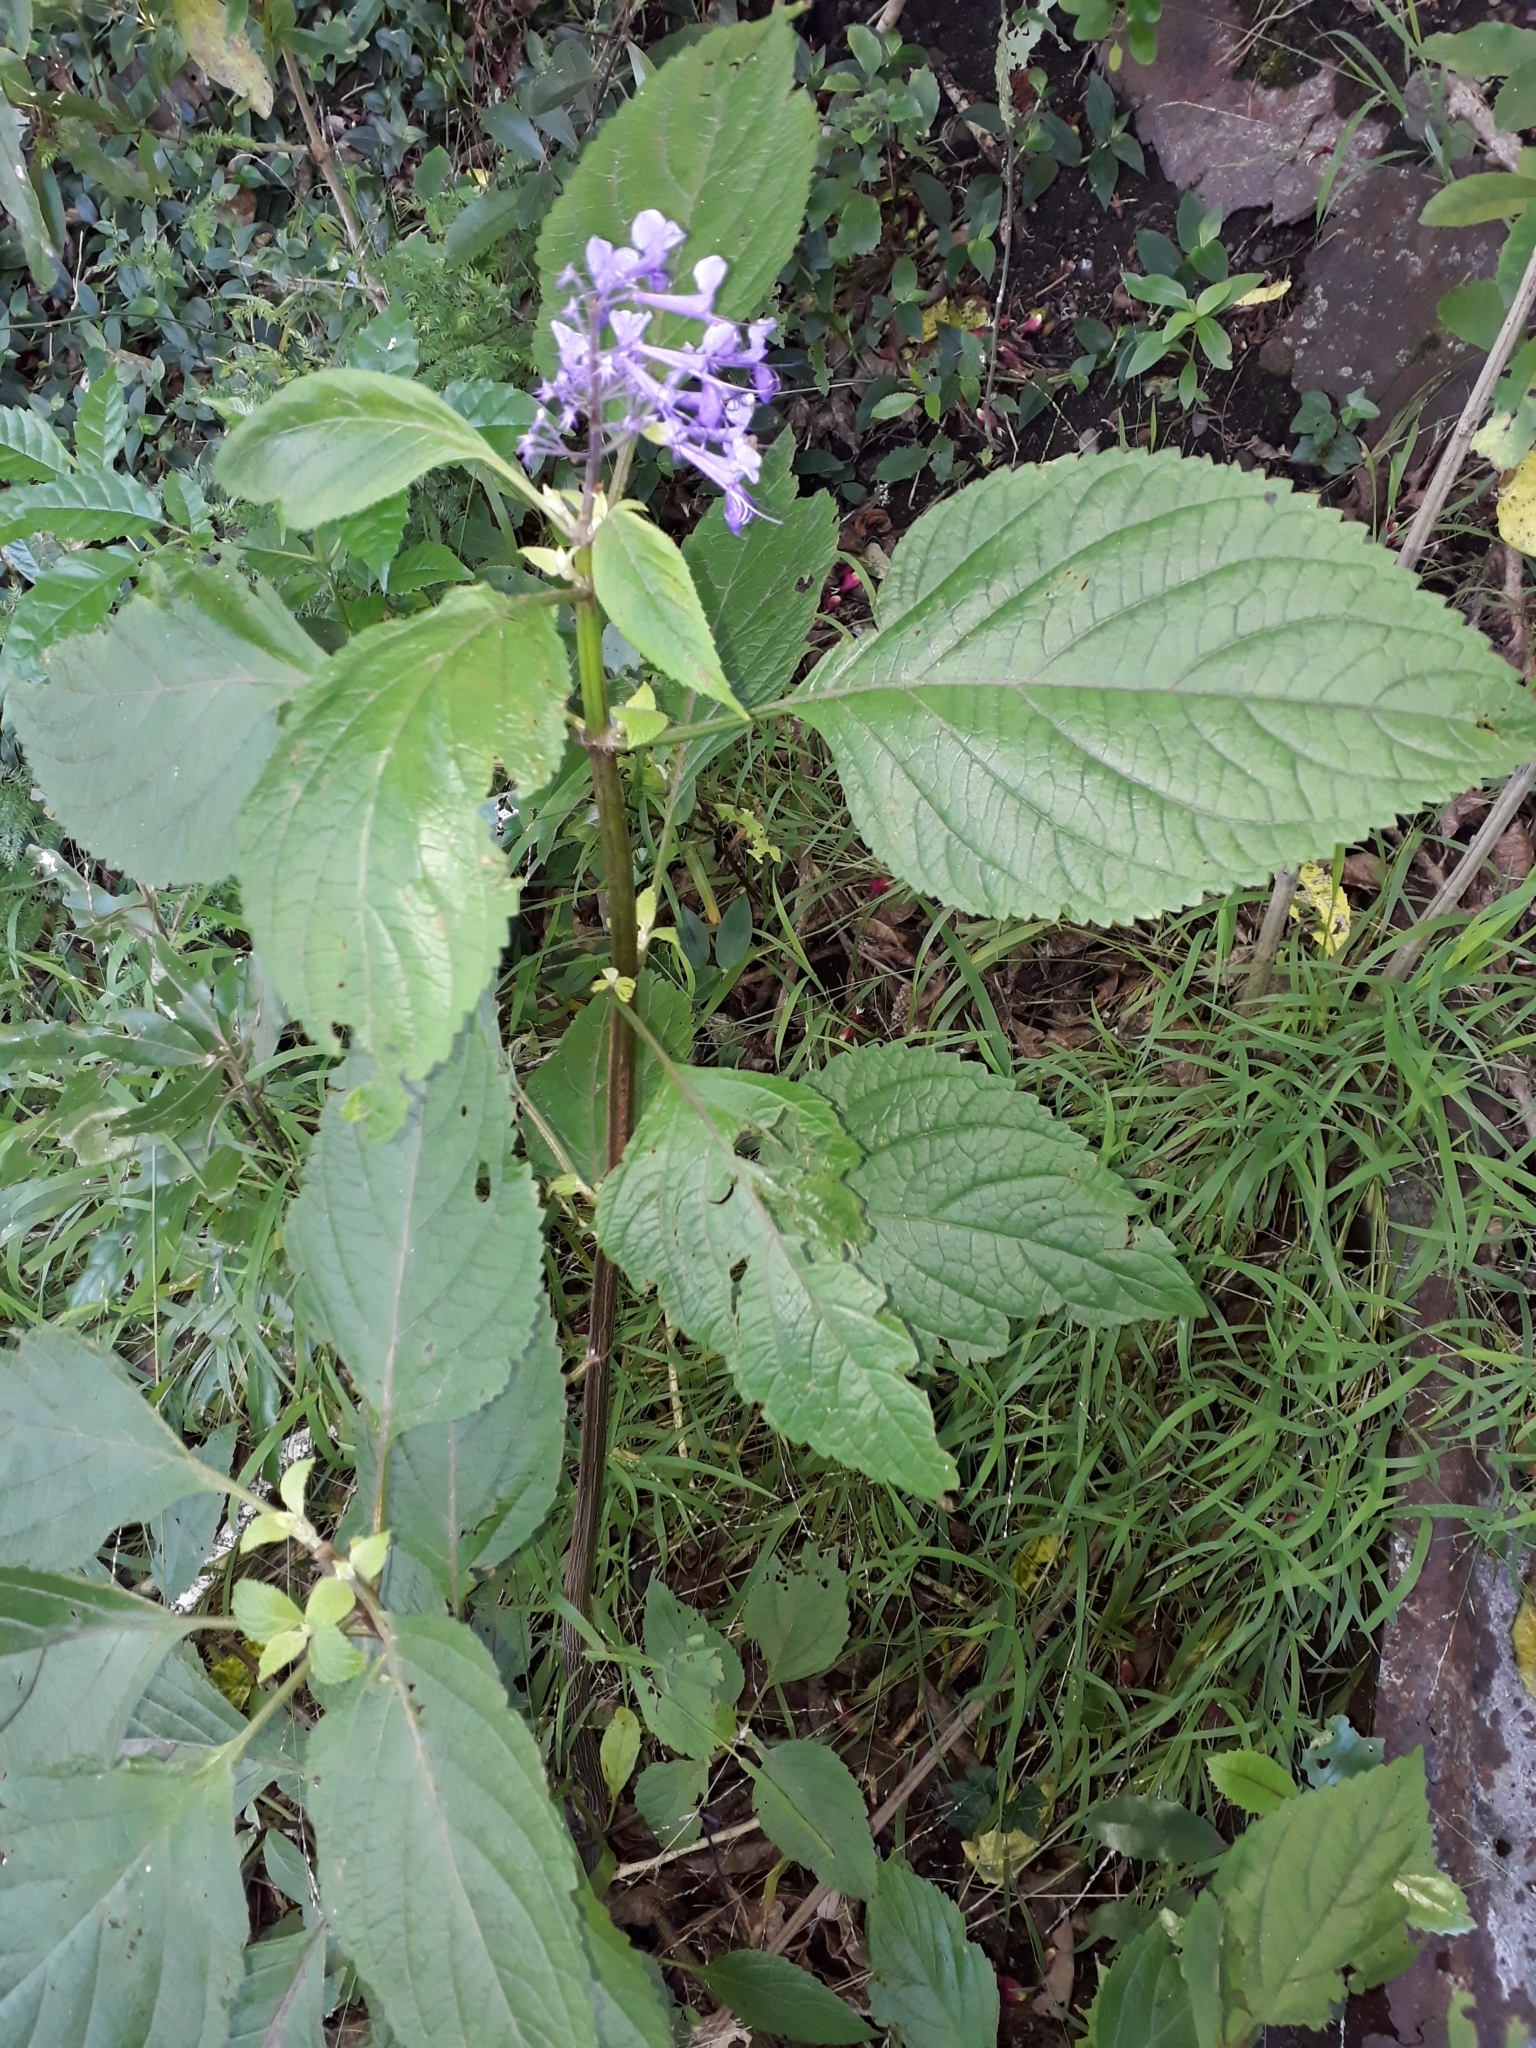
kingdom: Plantae
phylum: Tracheophyta
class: Magnoliopsida
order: Lamiales
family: Lamiaceae
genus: Plectranthus
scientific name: Plectranthus ecklonii
